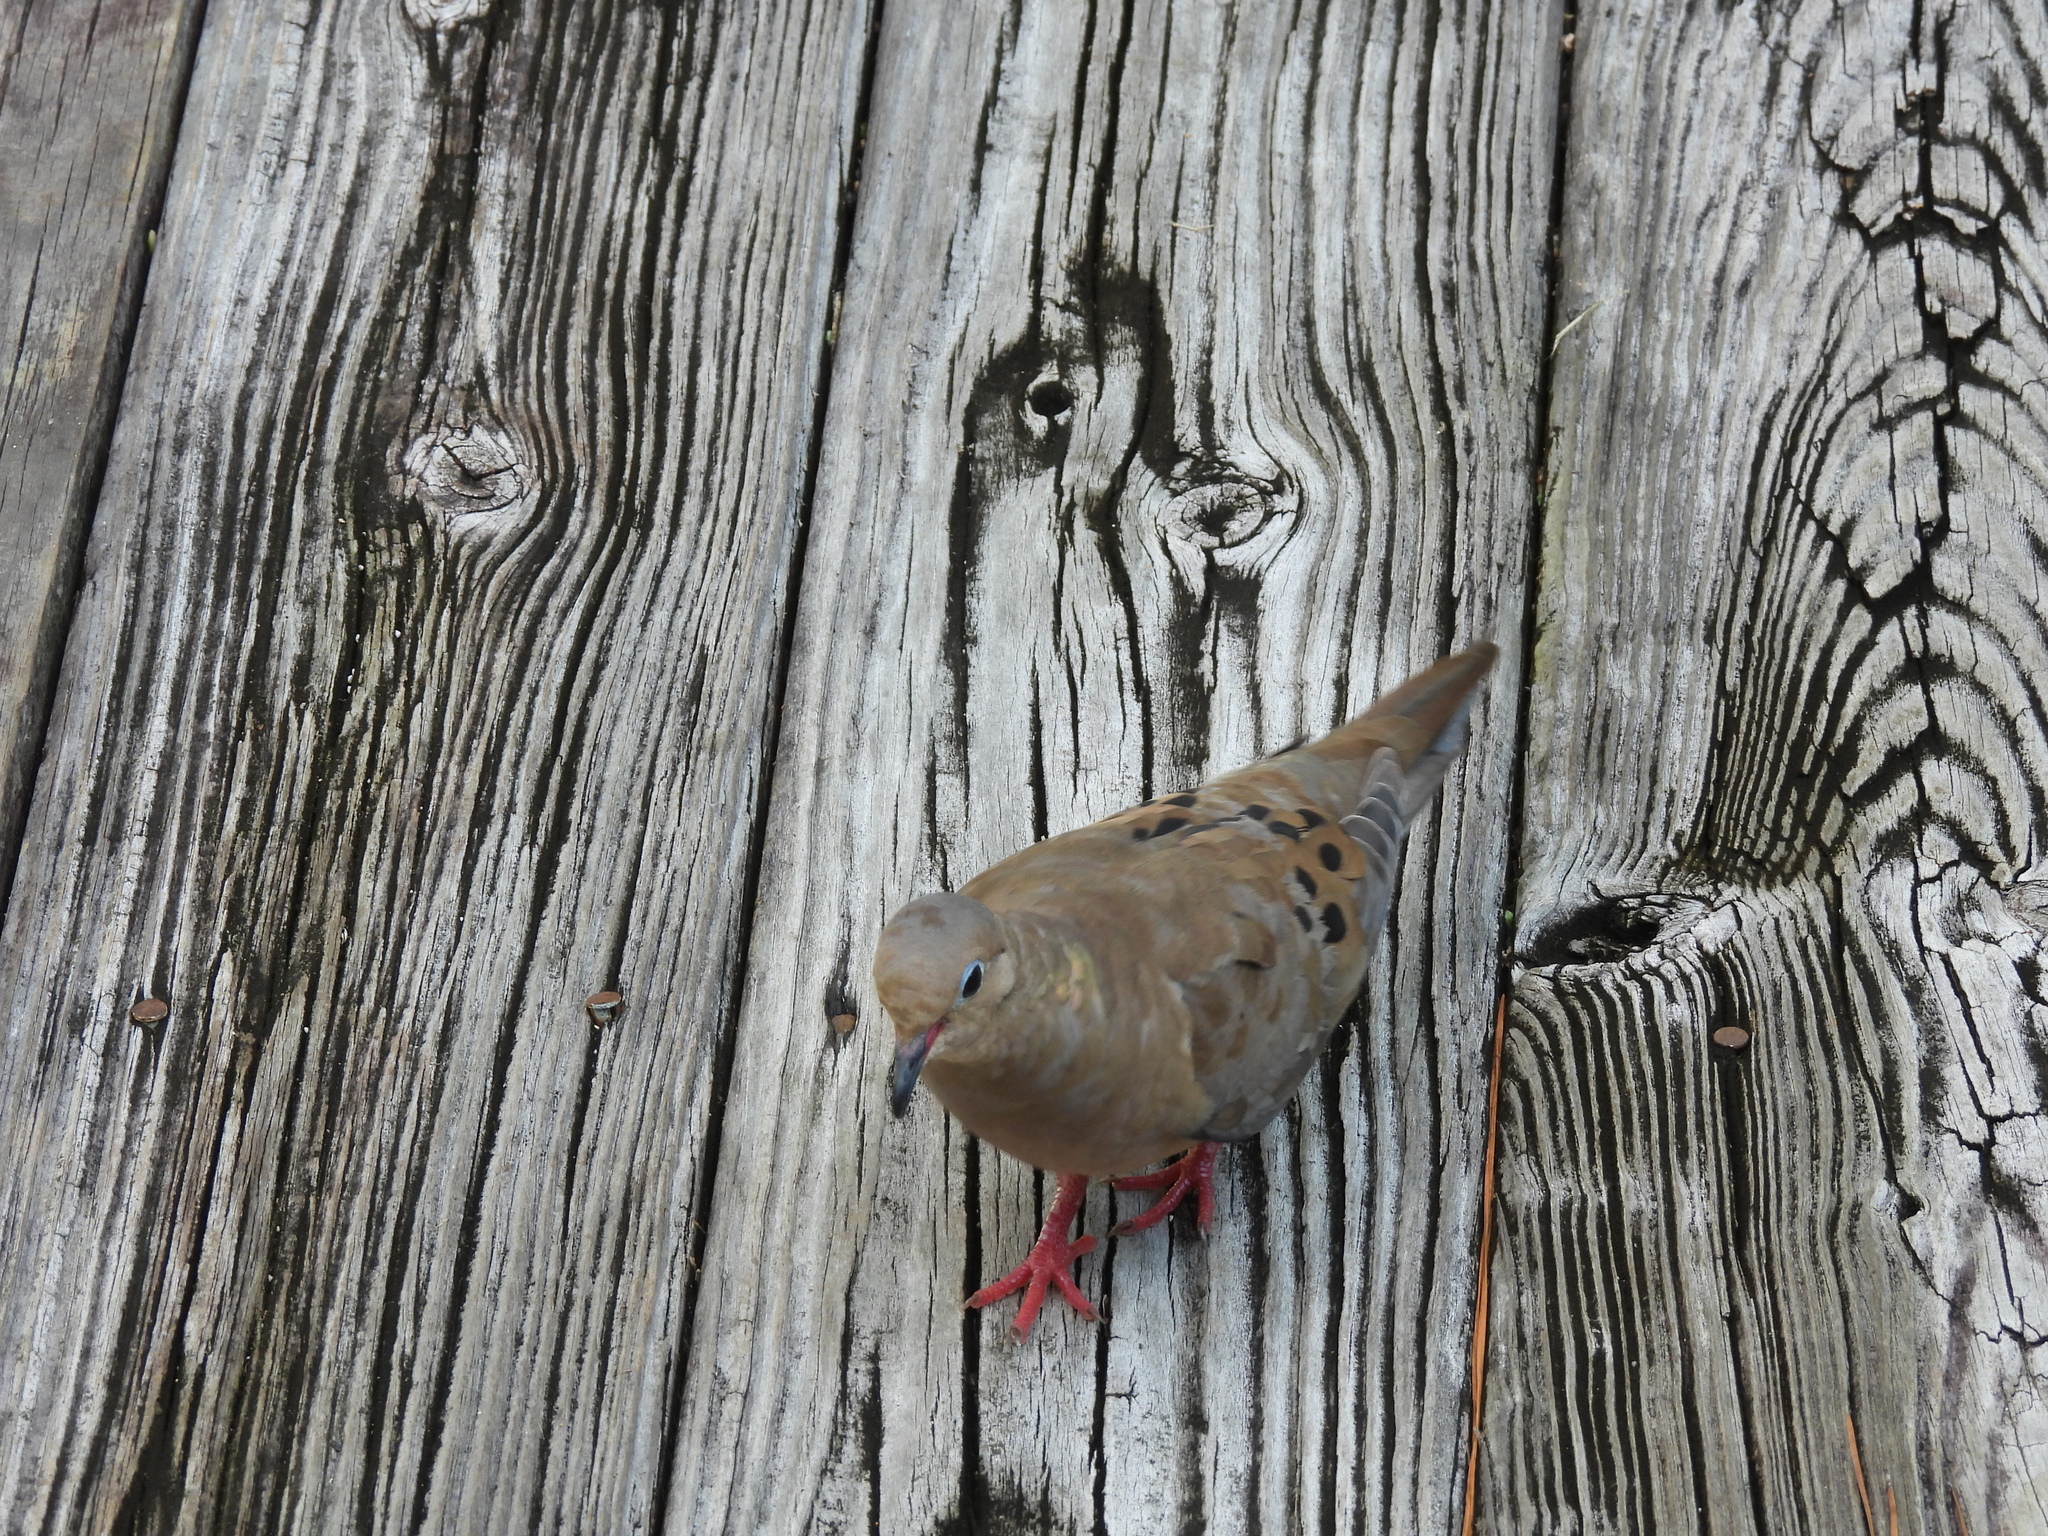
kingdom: Animalia
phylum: Chordata
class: Aves
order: Columbiformes
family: Columbidae
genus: Zenaida
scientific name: Zenaida macroura
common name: Mourning dove
